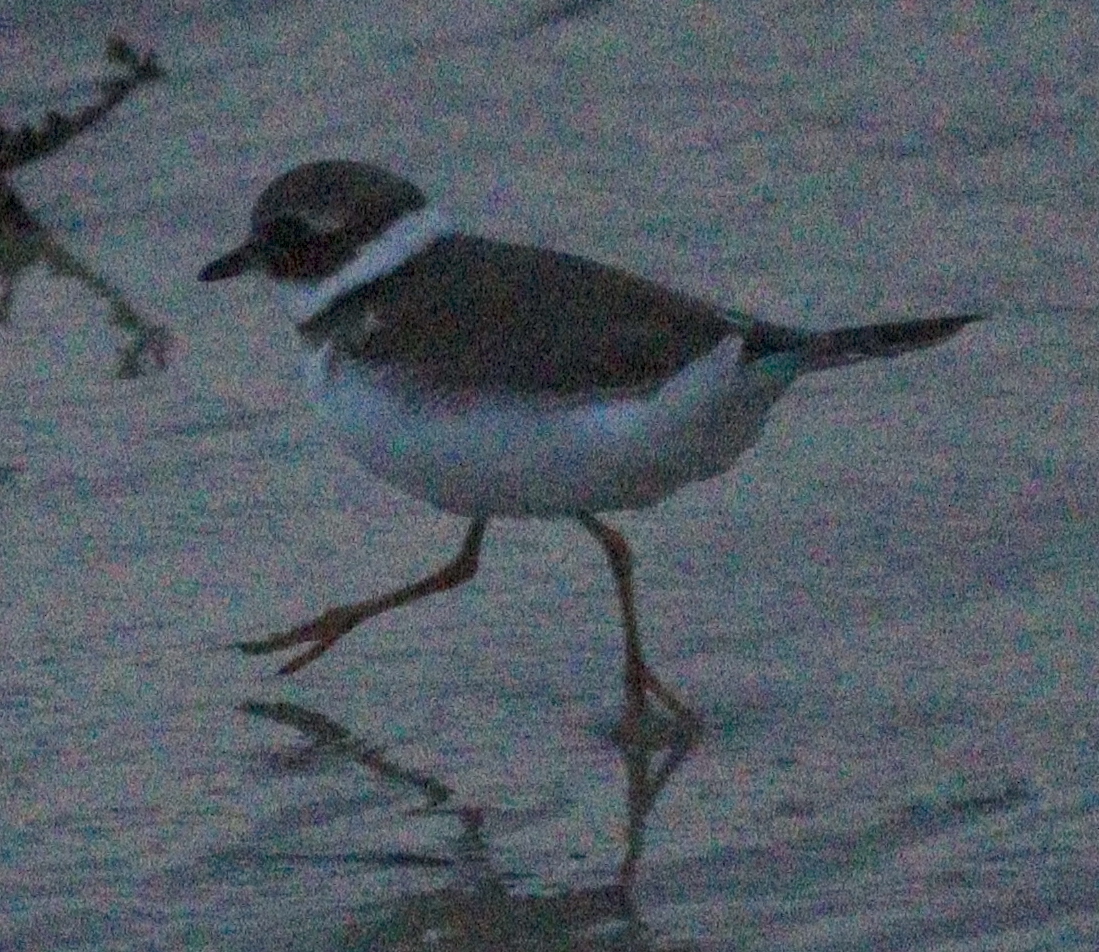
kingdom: Animalia
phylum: Chordata
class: Aves
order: Charadriiformes
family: Charadriidae
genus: Charadrius
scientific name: Charadrius hiaticula
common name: Common ringed plover
